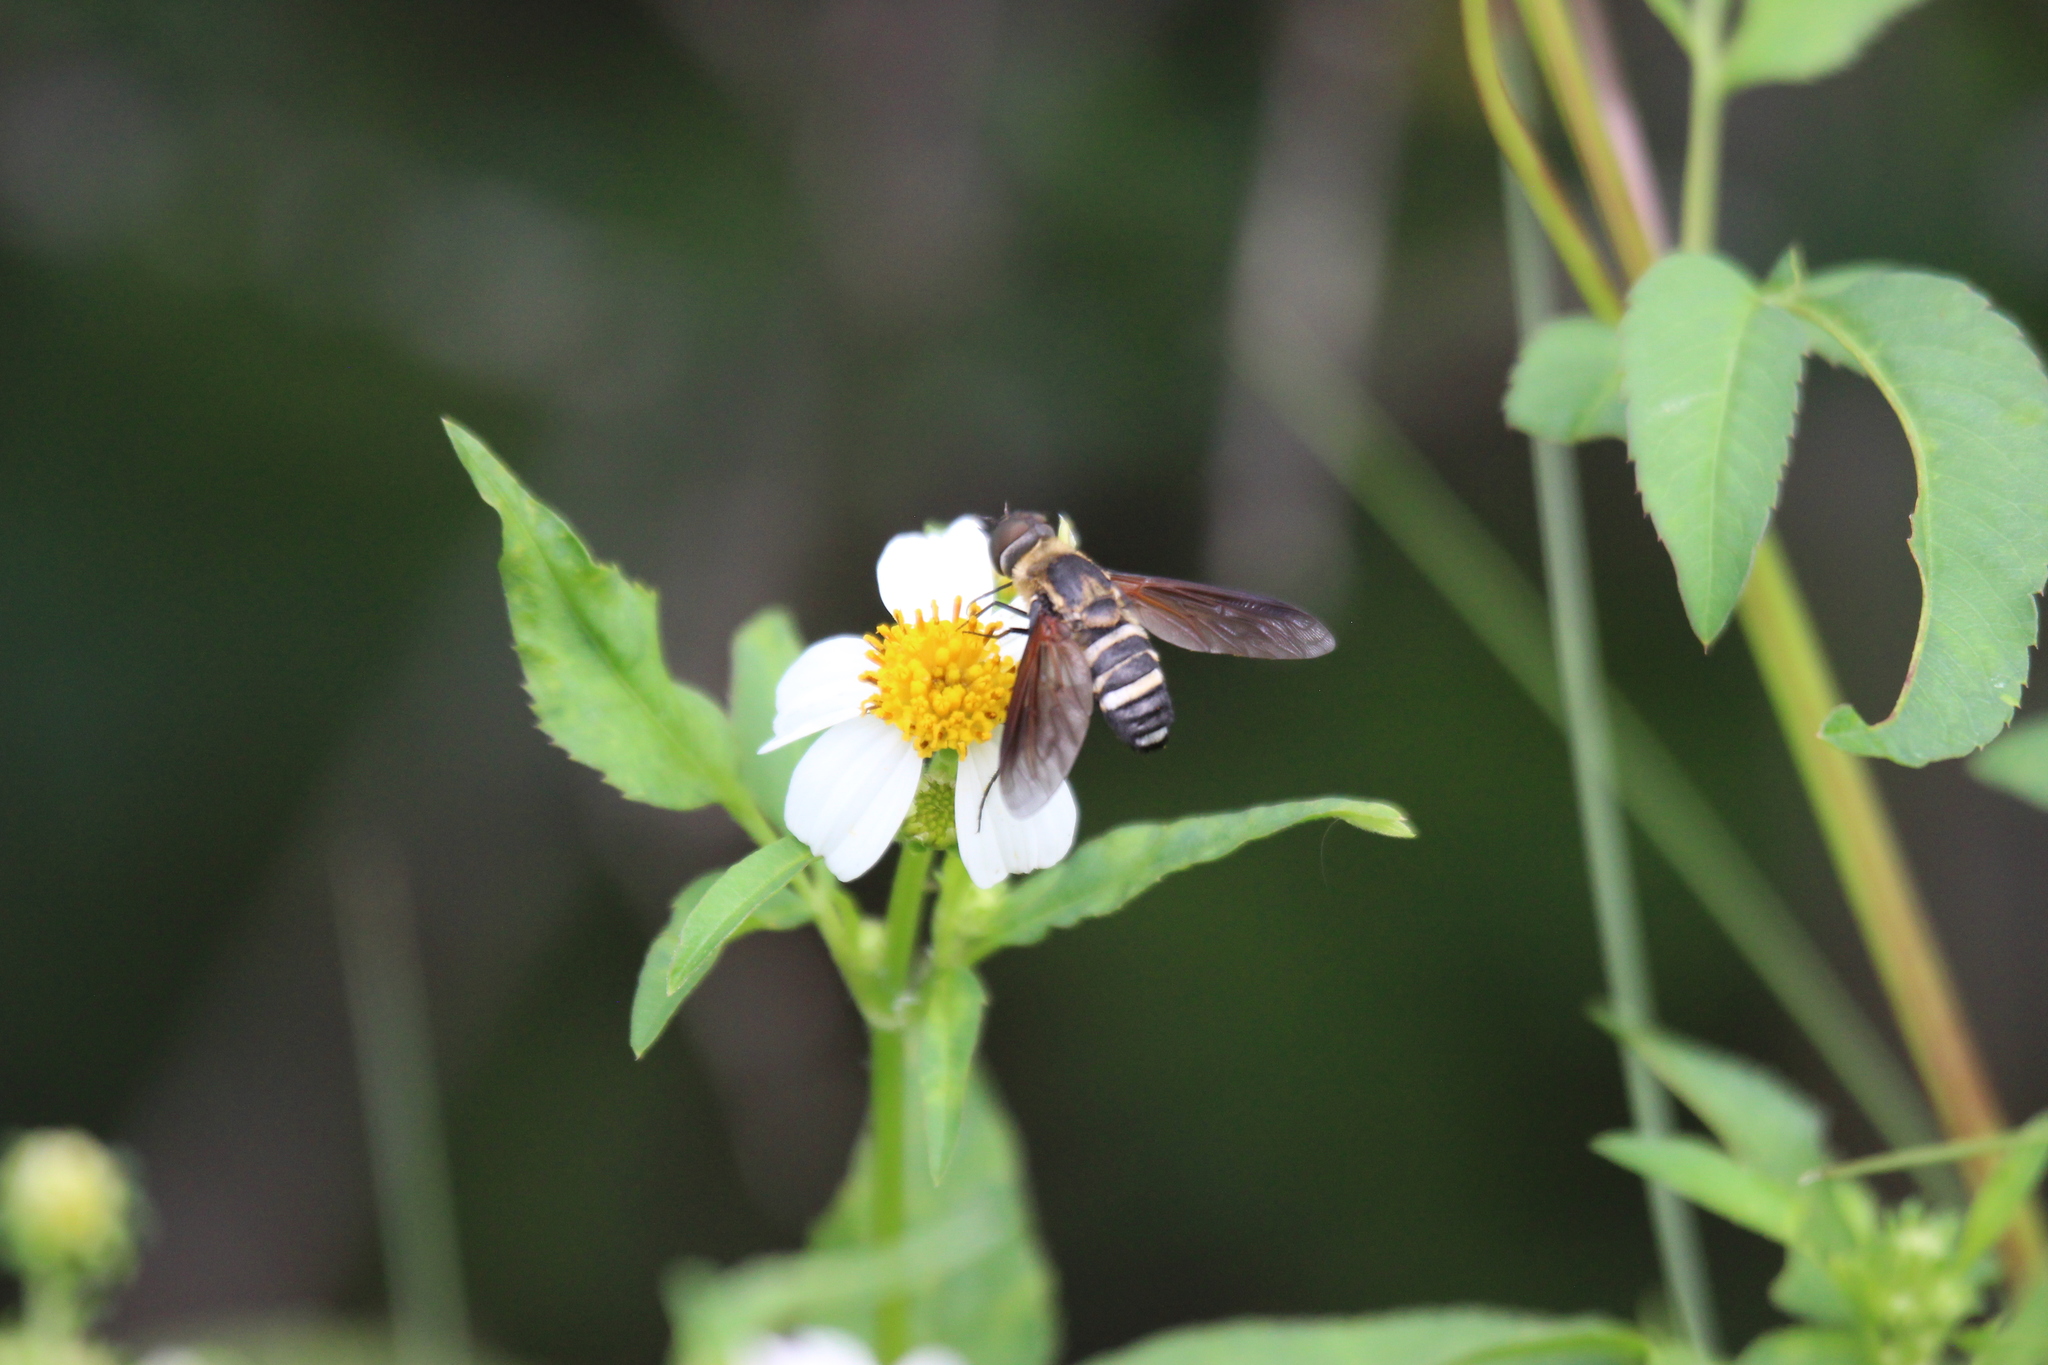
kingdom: Animalia
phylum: Arthropoda
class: Insecta
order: Diptera
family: Bombyliidae
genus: Exoprosopa
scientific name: Exoprosopa fasciata
